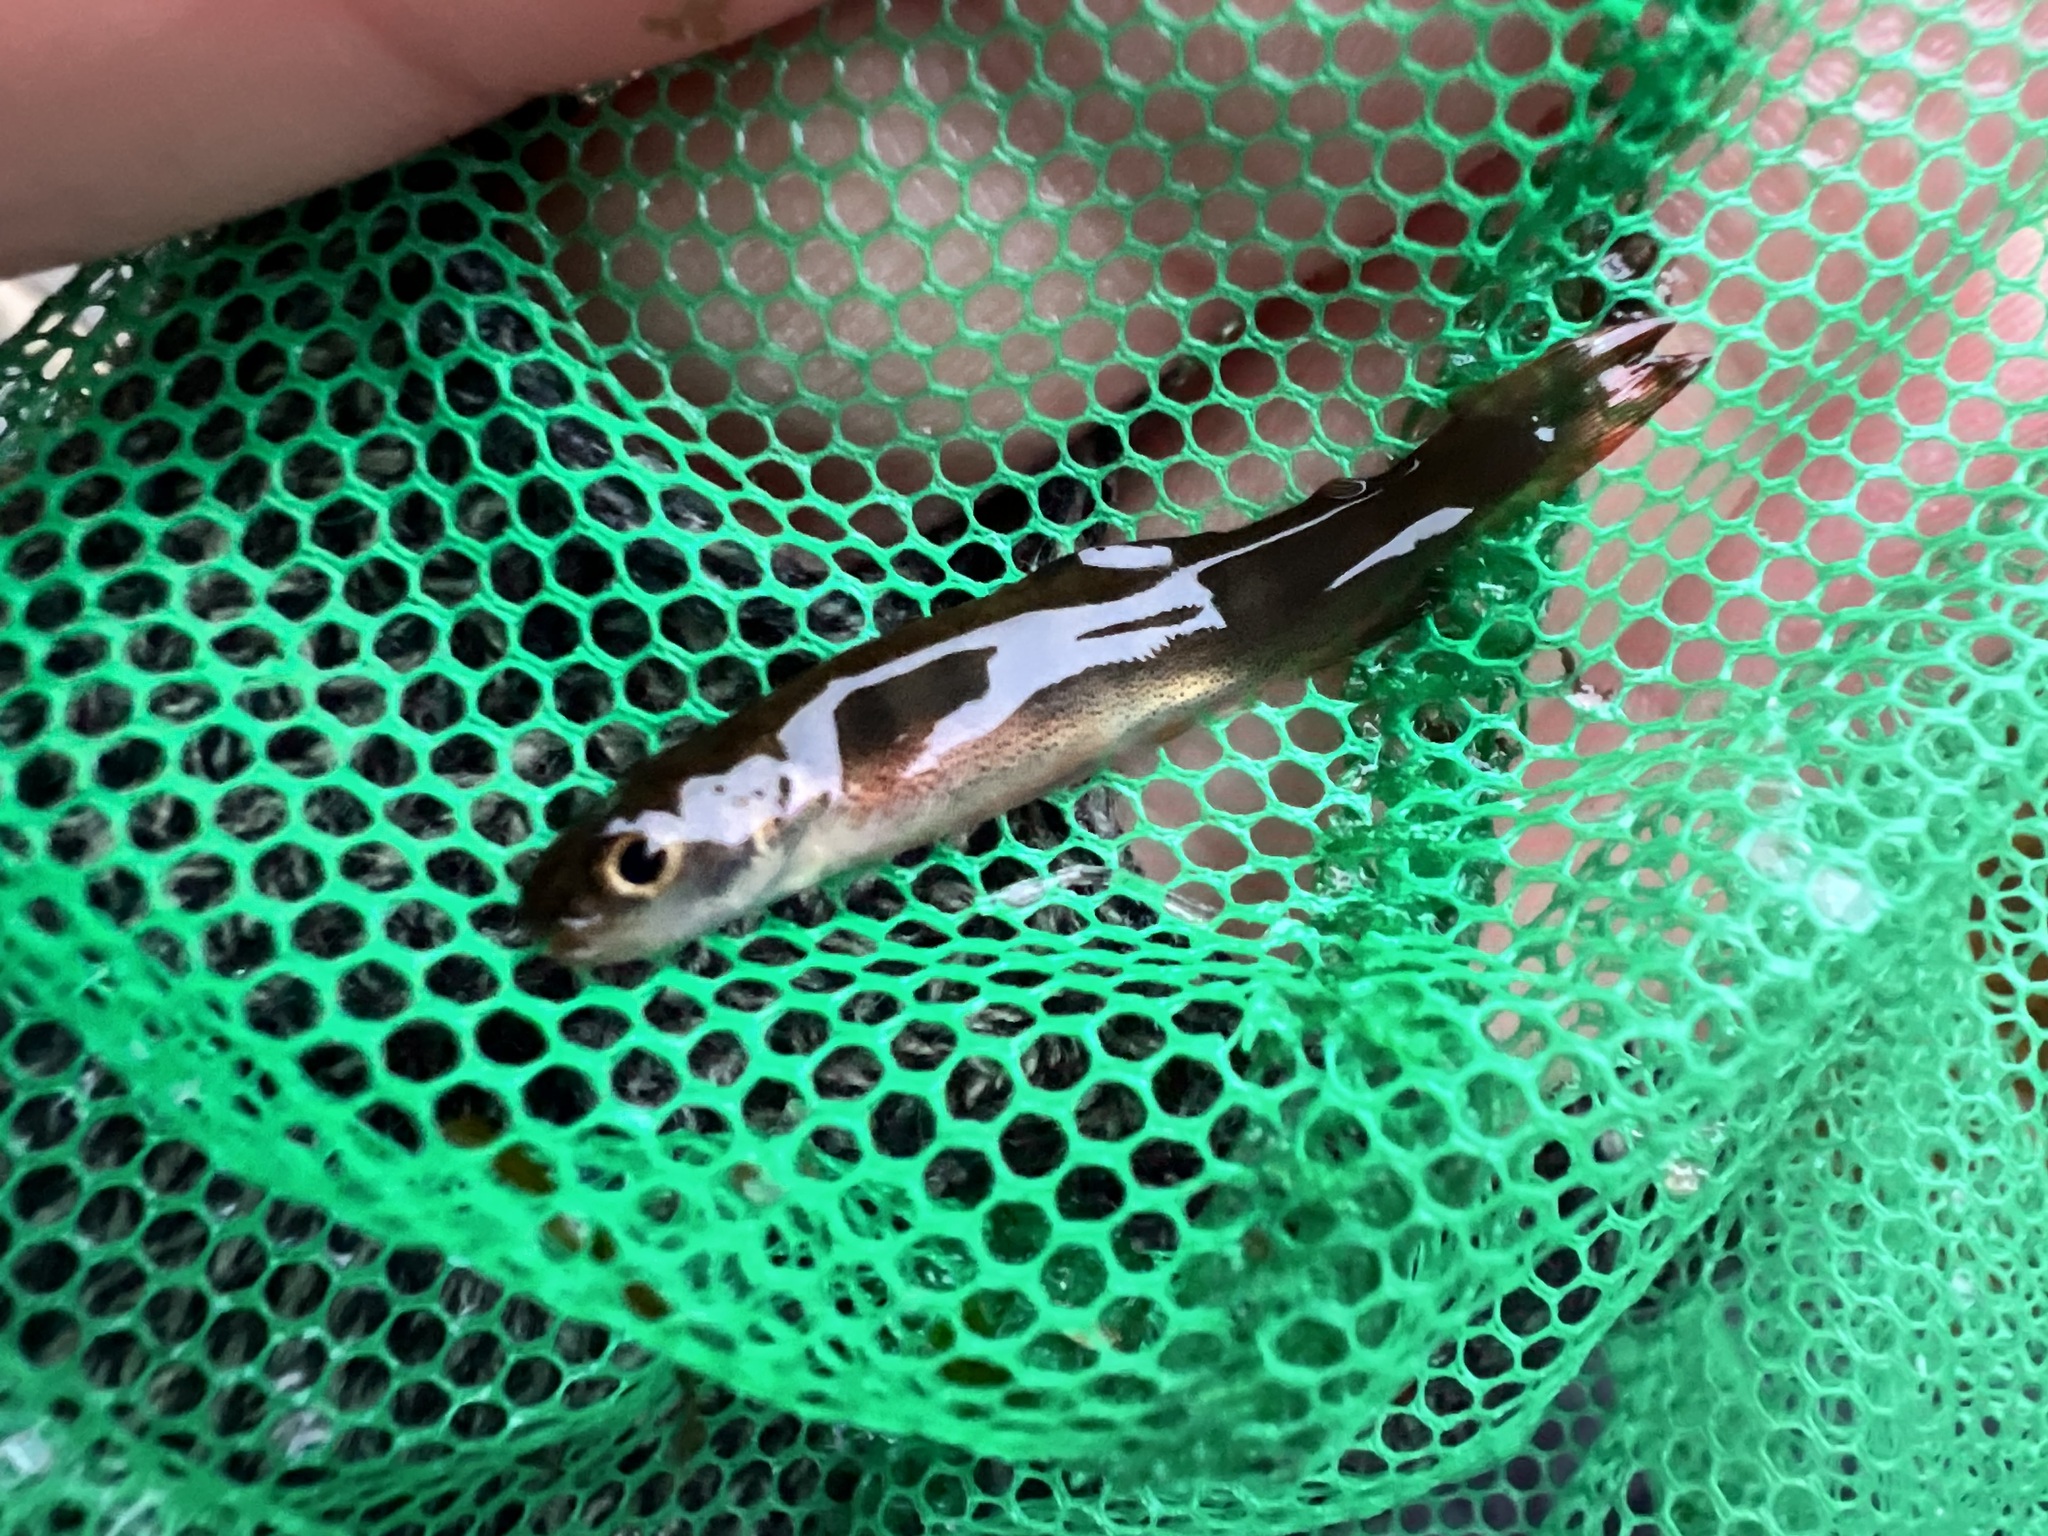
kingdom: Animalia
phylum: Chordata
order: Salmoniformes
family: Salmonidae
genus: Oncorhynchus
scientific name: Oncorhynchus kisutch
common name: Coho salmon
